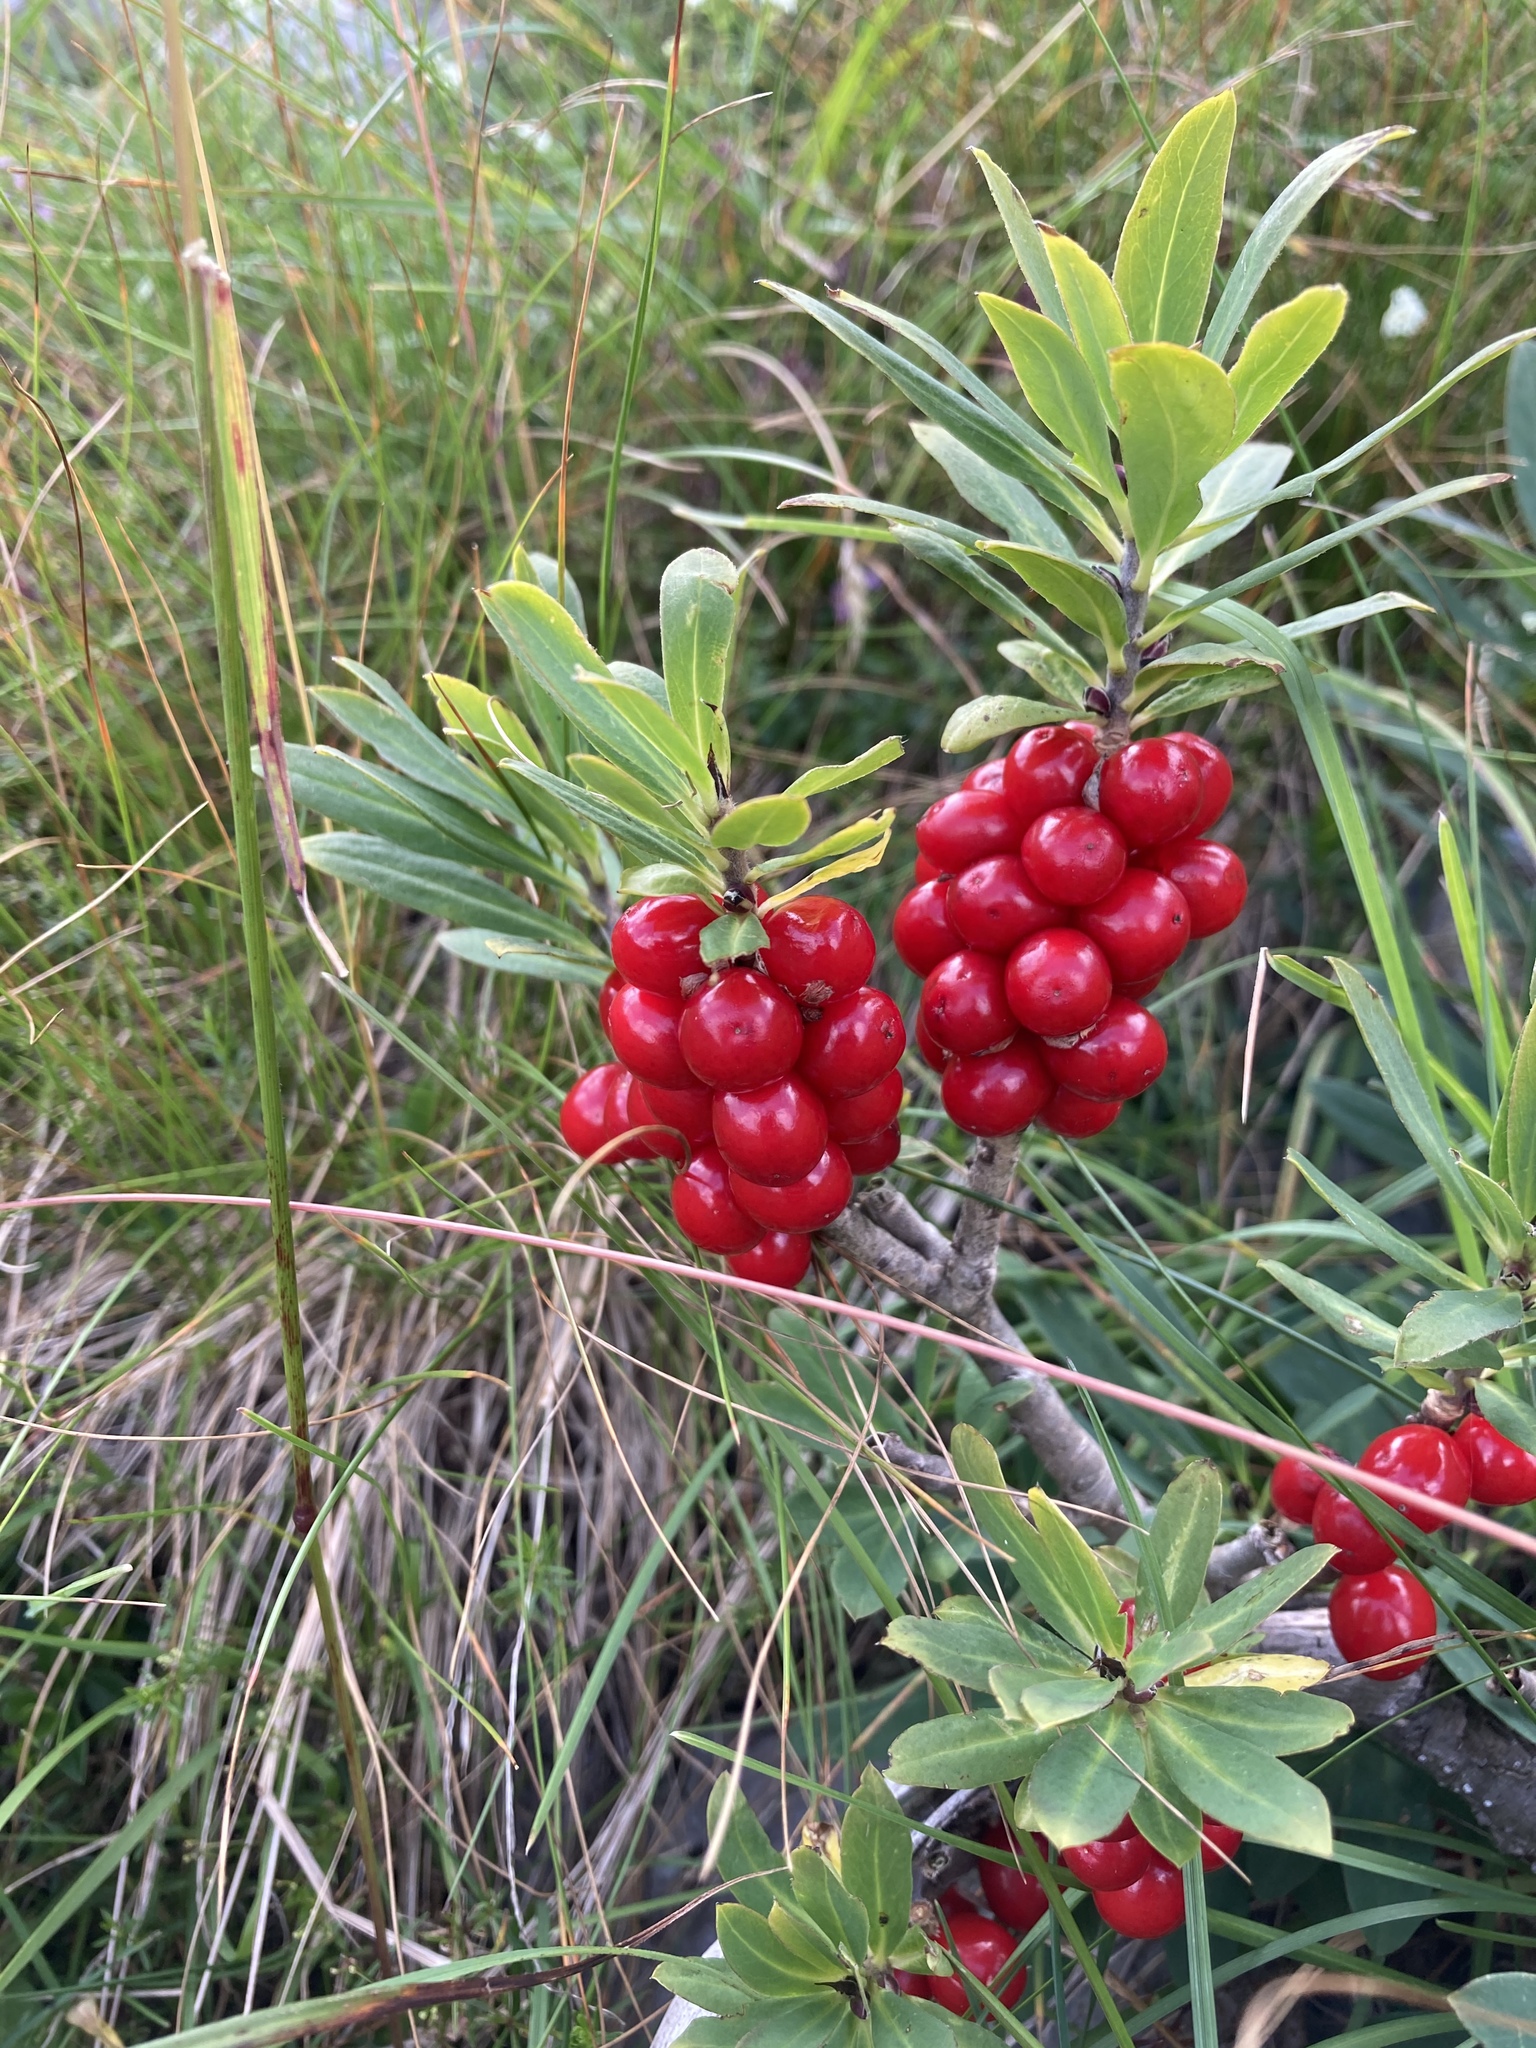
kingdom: Plantae
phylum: Tracheophyta
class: Magnoliopsida
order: Malvales
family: Thymelaeaceae
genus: Daphne
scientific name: Daphne mezereum
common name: Mezereon
